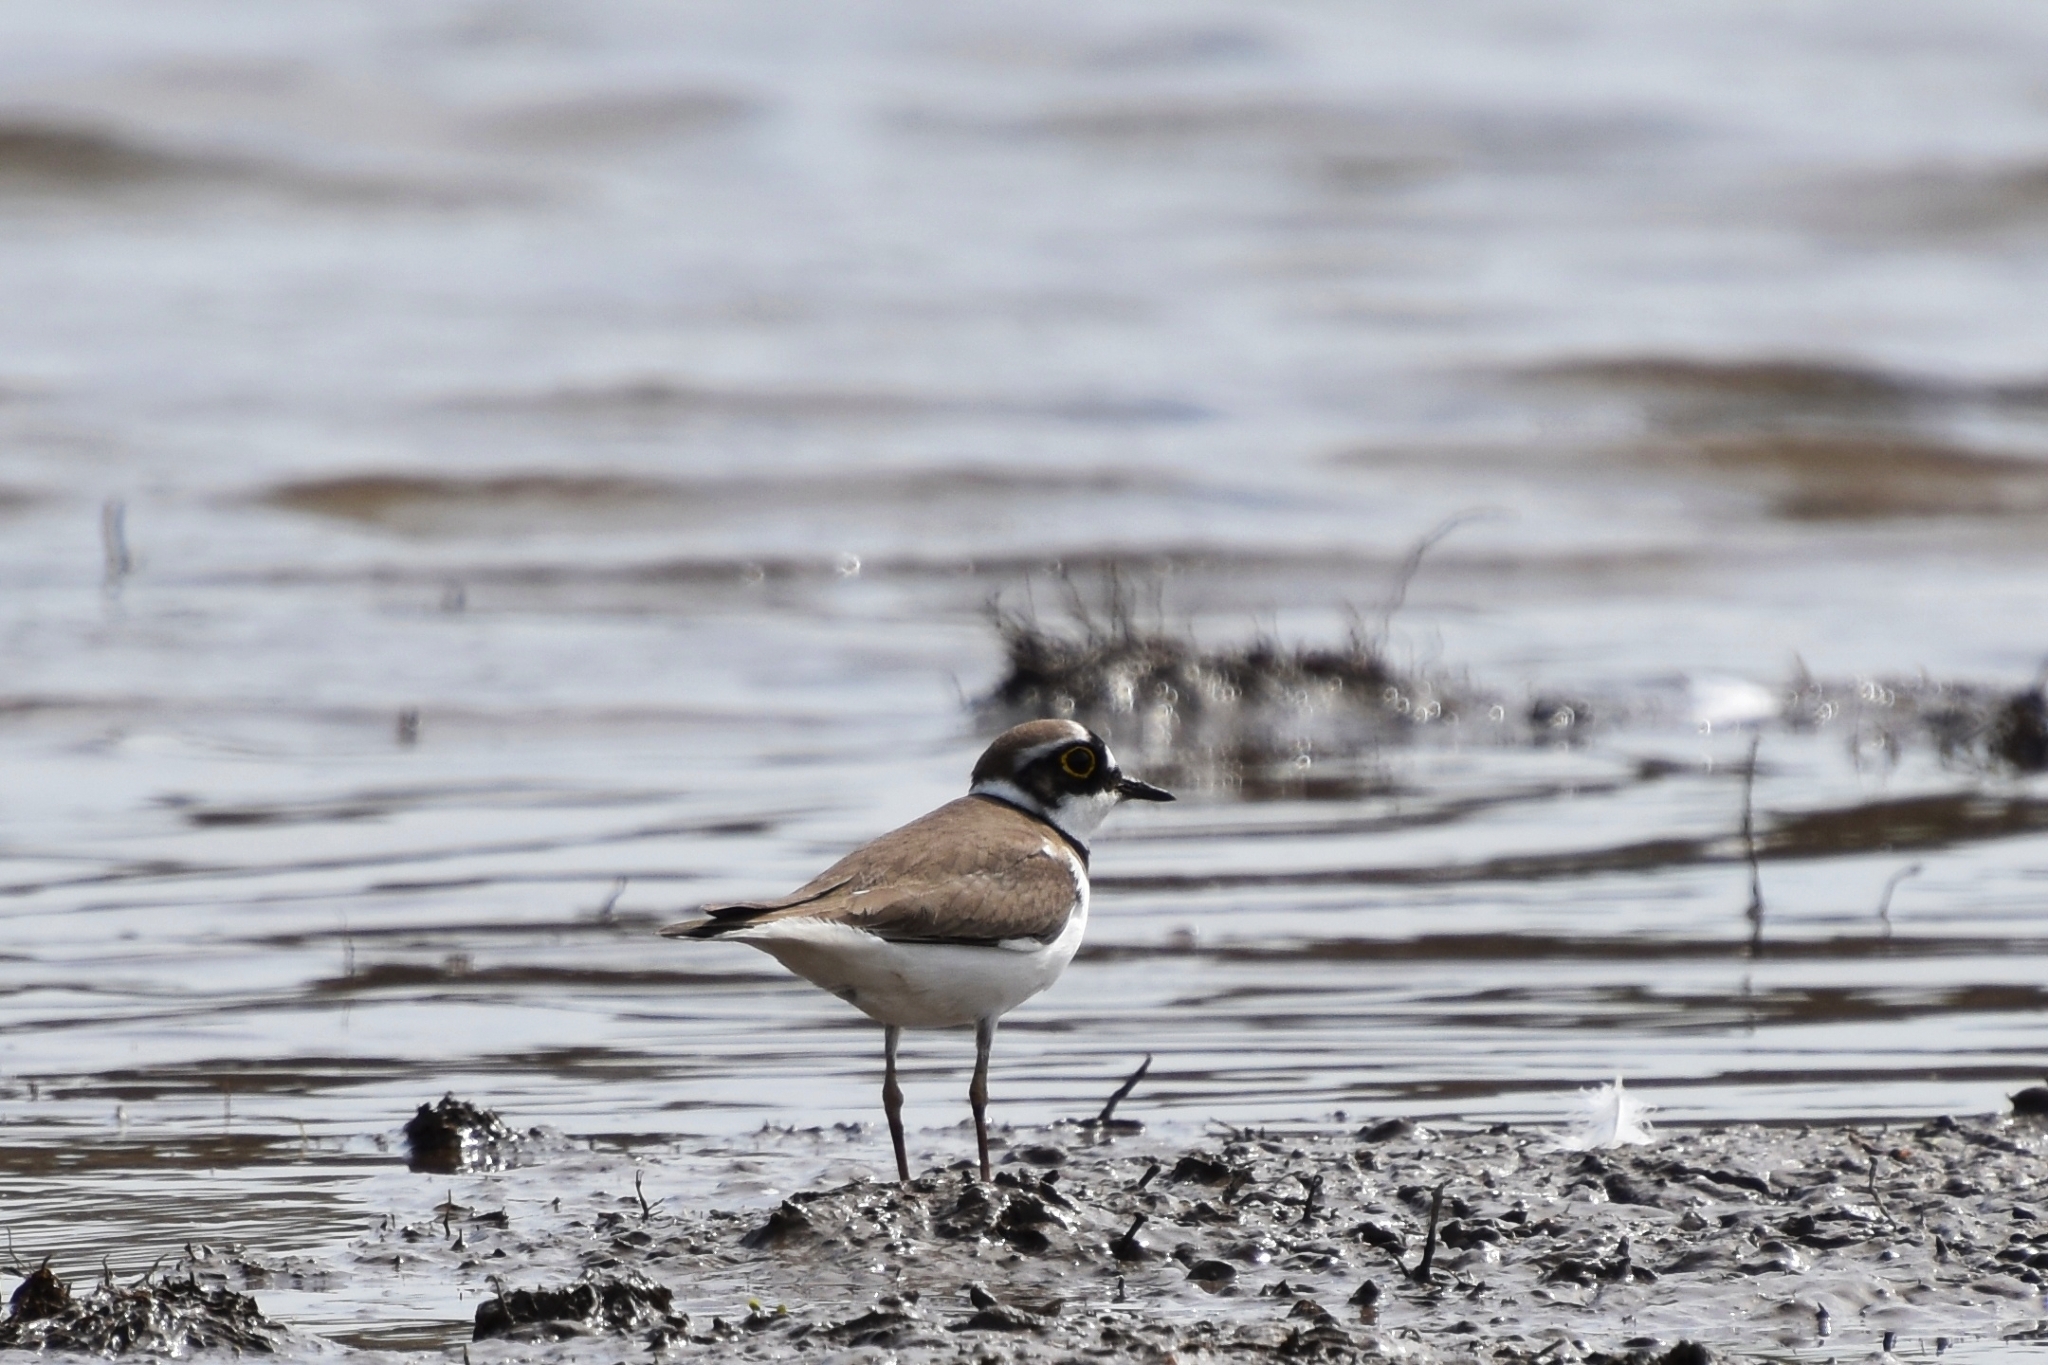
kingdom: Animalia
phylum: Chordata
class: Aves
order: Charadriiformes
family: Charadriidae
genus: Charadrius
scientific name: Charadrius dubius
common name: Little ringed plover
